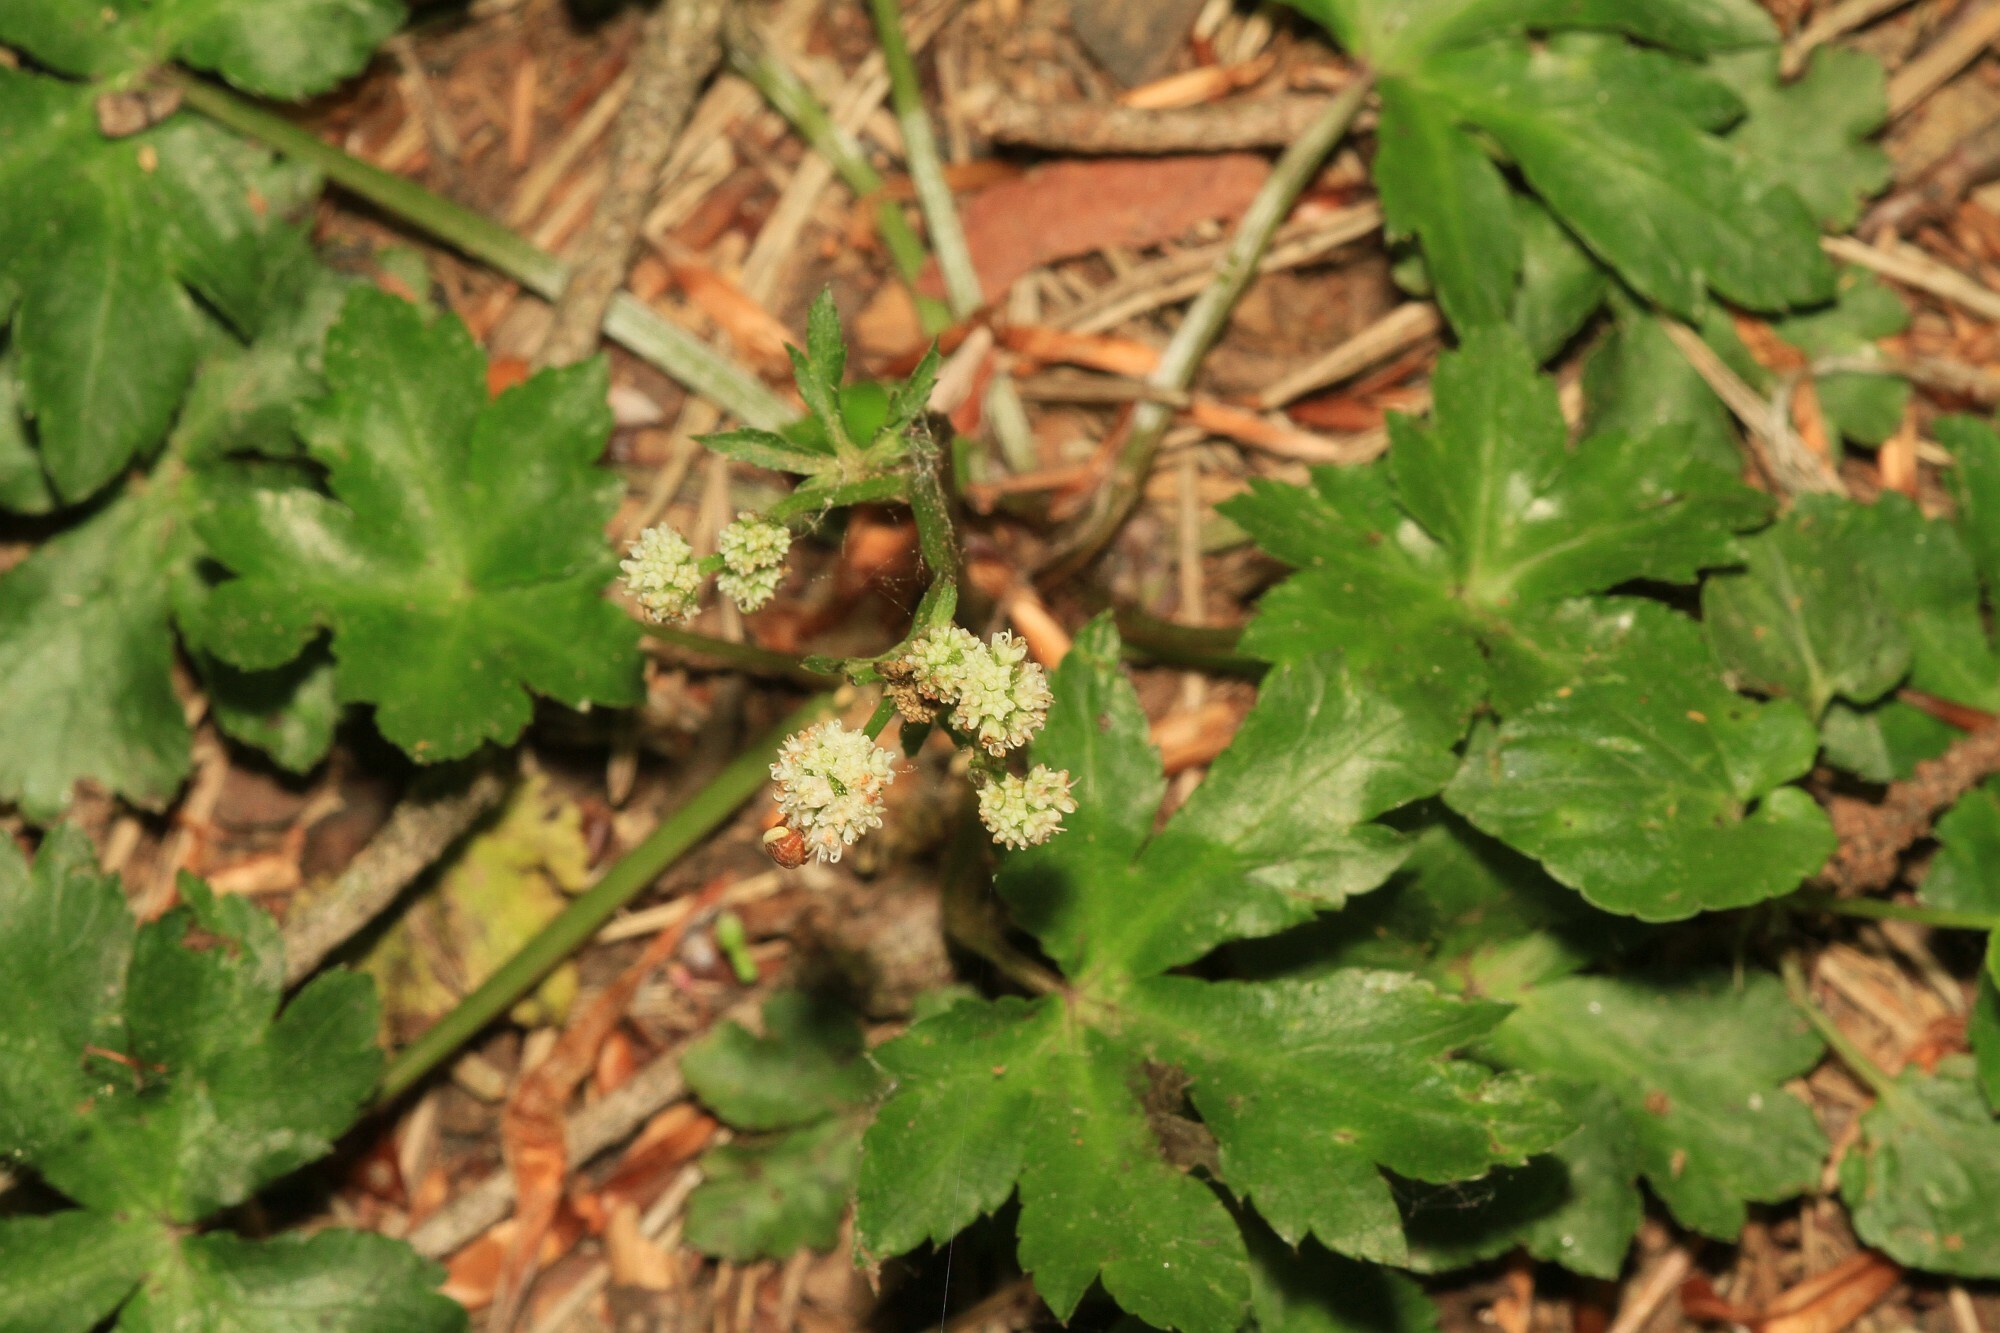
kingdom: Plantae
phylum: Tracheophyta
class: Magnoliopsida
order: Apiales
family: Apiaceae
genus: Sanicula
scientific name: Sanicula europaea
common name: Sanicle
